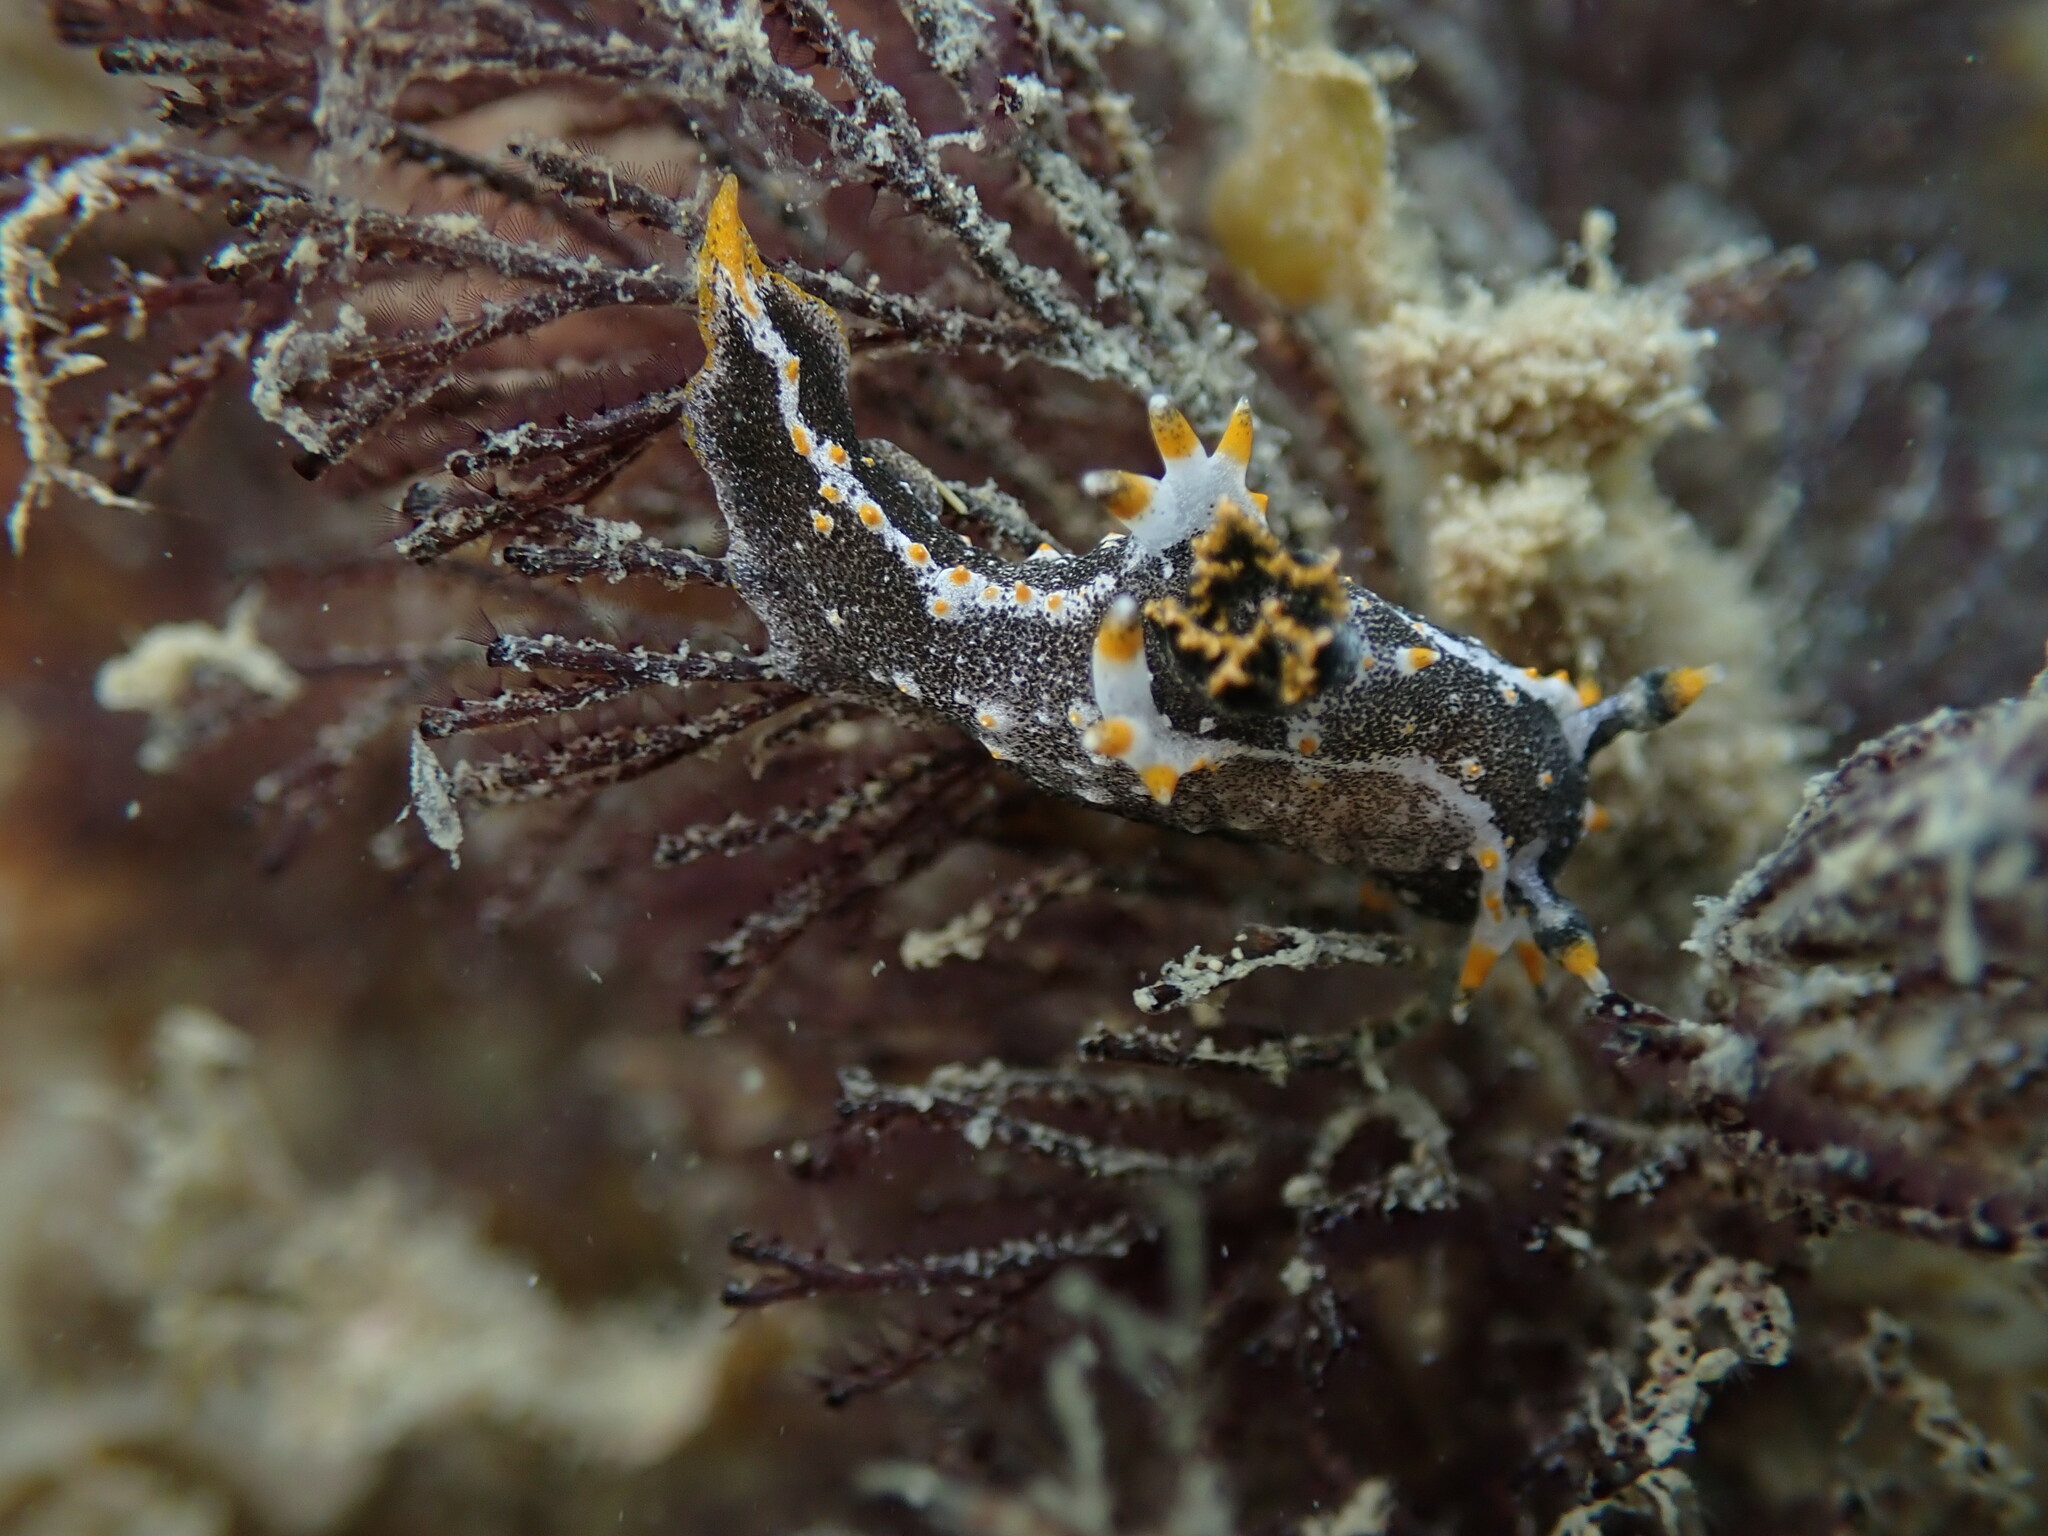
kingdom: Animalia
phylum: Bryozoa
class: Gymnolaemata
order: Cheilostomatida
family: Bugulidae
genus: Bugula
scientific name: Bugula neritina
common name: Brown bryozoan
